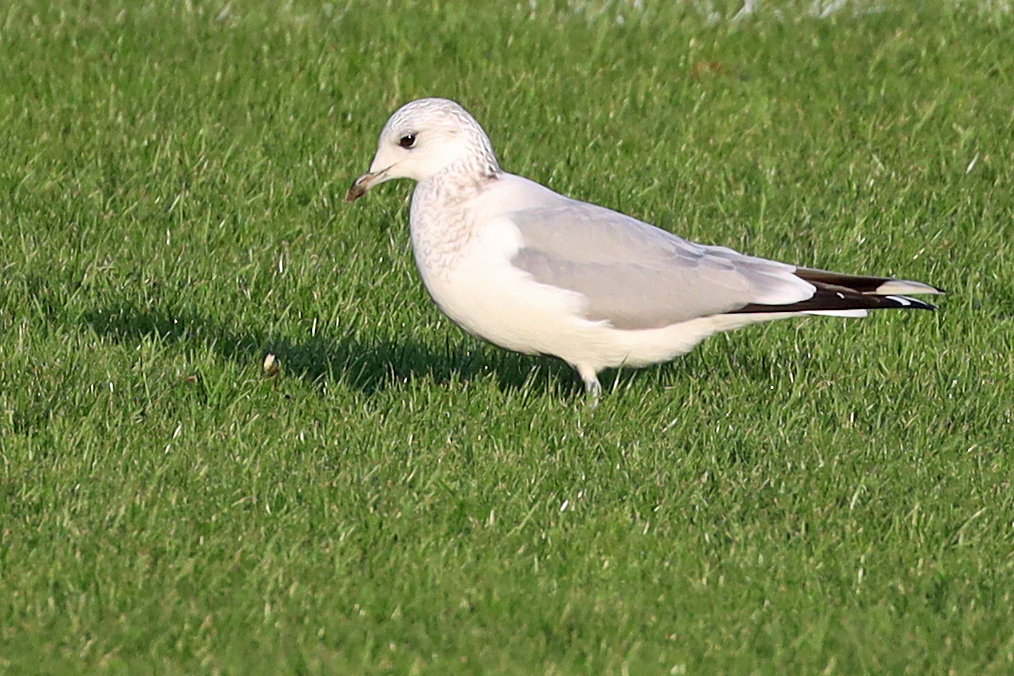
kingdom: Animalia
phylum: Chordata
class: Aves
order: Charadriiformes
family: Laridae
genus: Larus
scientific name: Larus canus
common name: Mew gull
